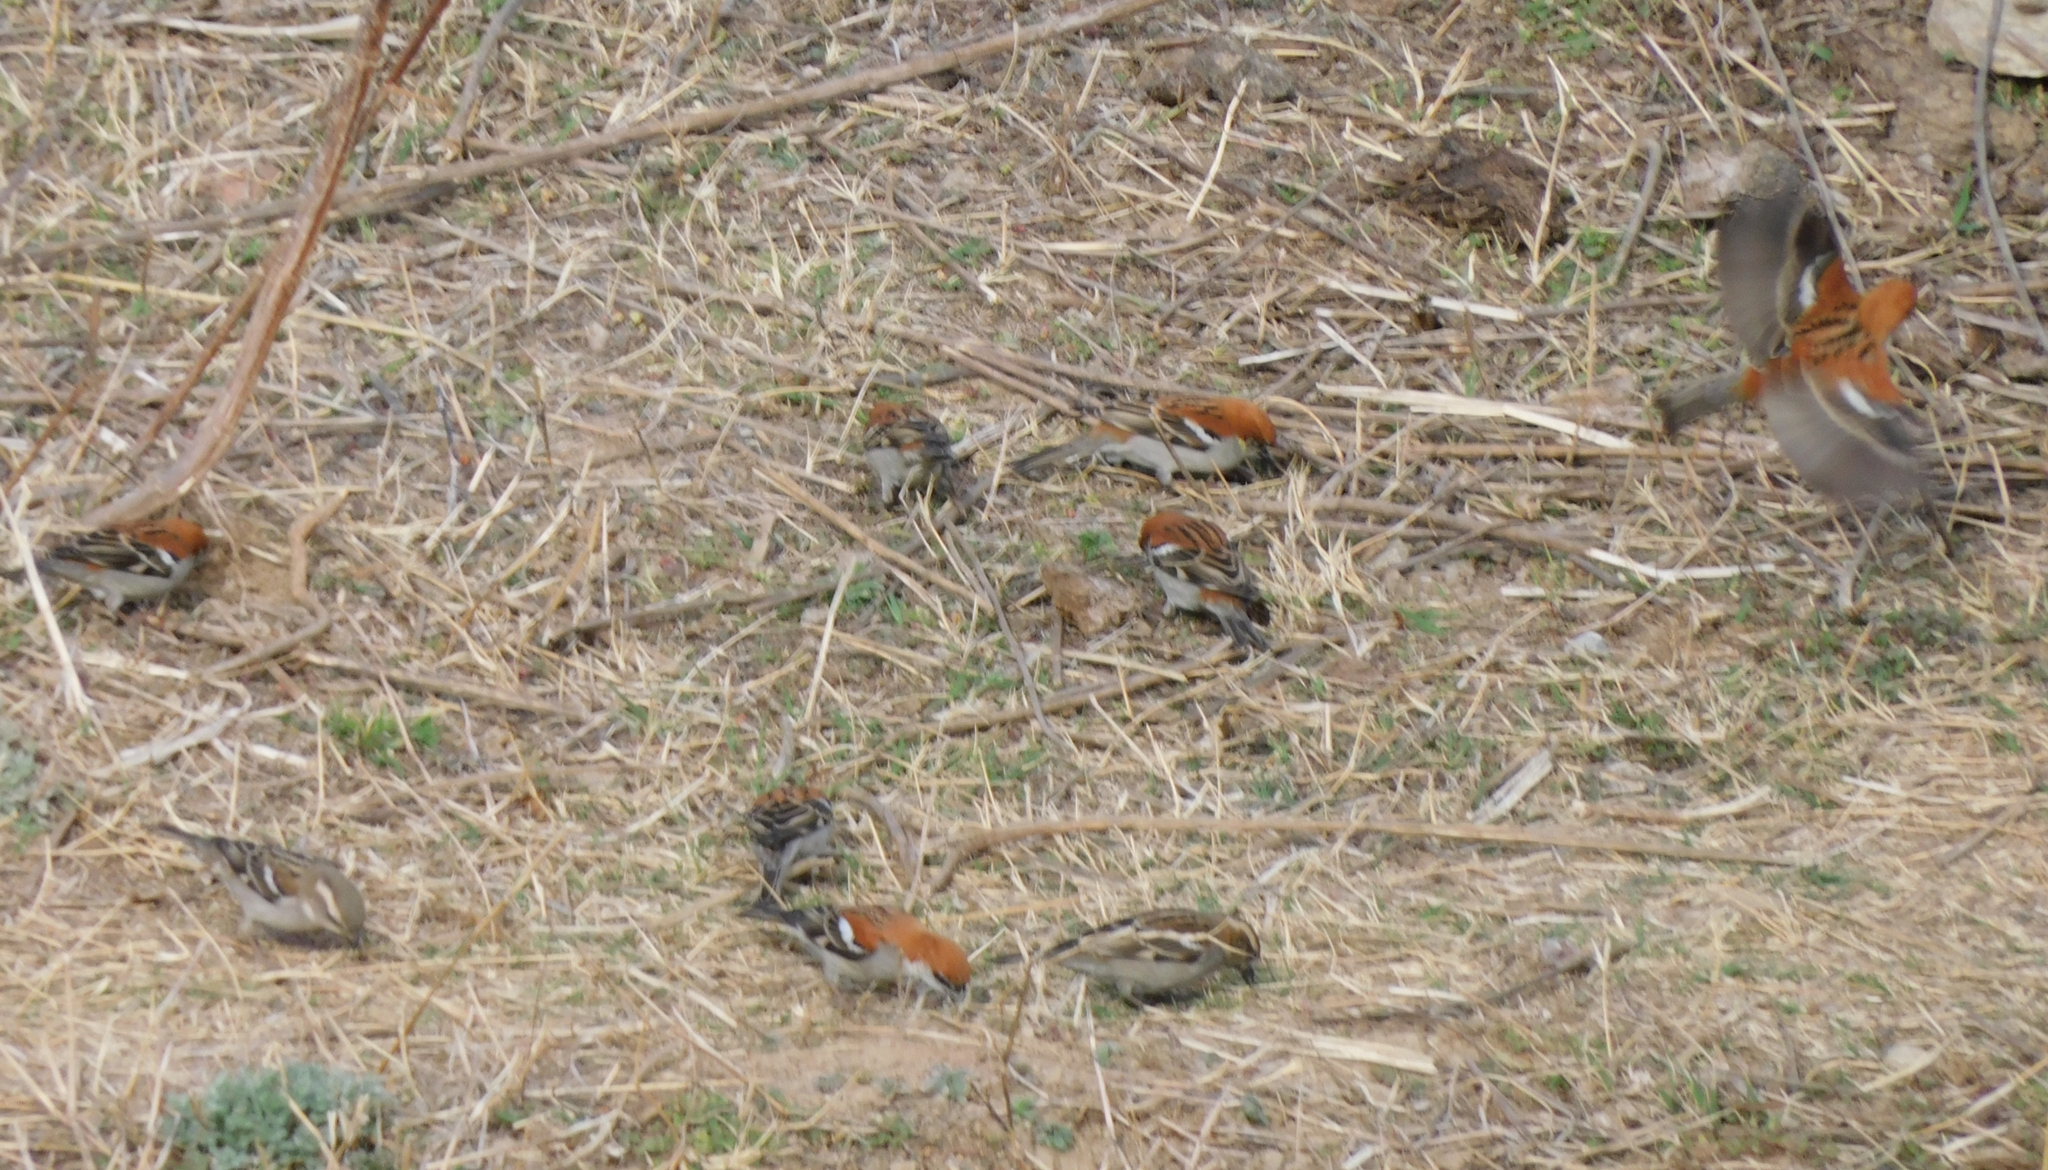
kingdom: Animalia
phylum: Chordata
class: Aves
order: Passeriformes
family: Passeridae
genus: Passer
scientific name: Passer cinnamomeus
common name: Russet sparrow
